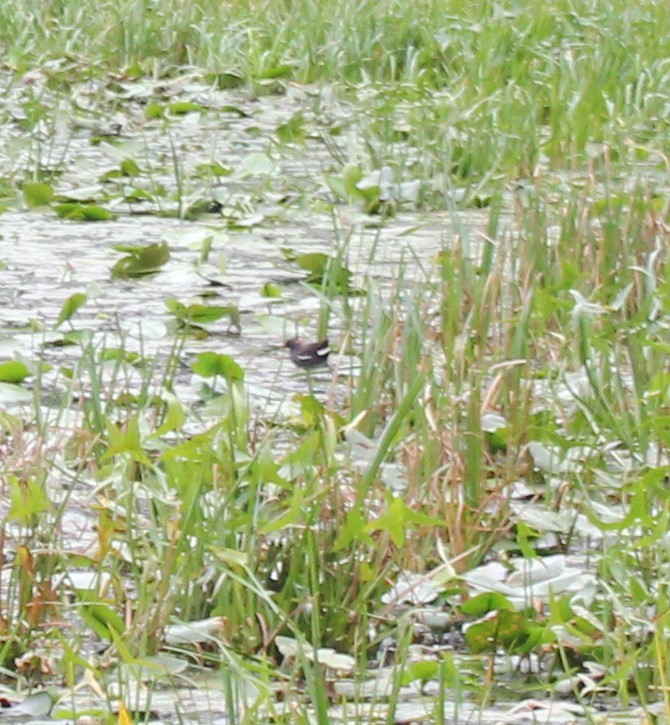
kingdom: Animalia
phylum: Chordata
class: Aves
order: Gruiformes
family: Rallidae
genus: Gallinula
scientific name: Gallinula chloropus
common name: Common moorhen
